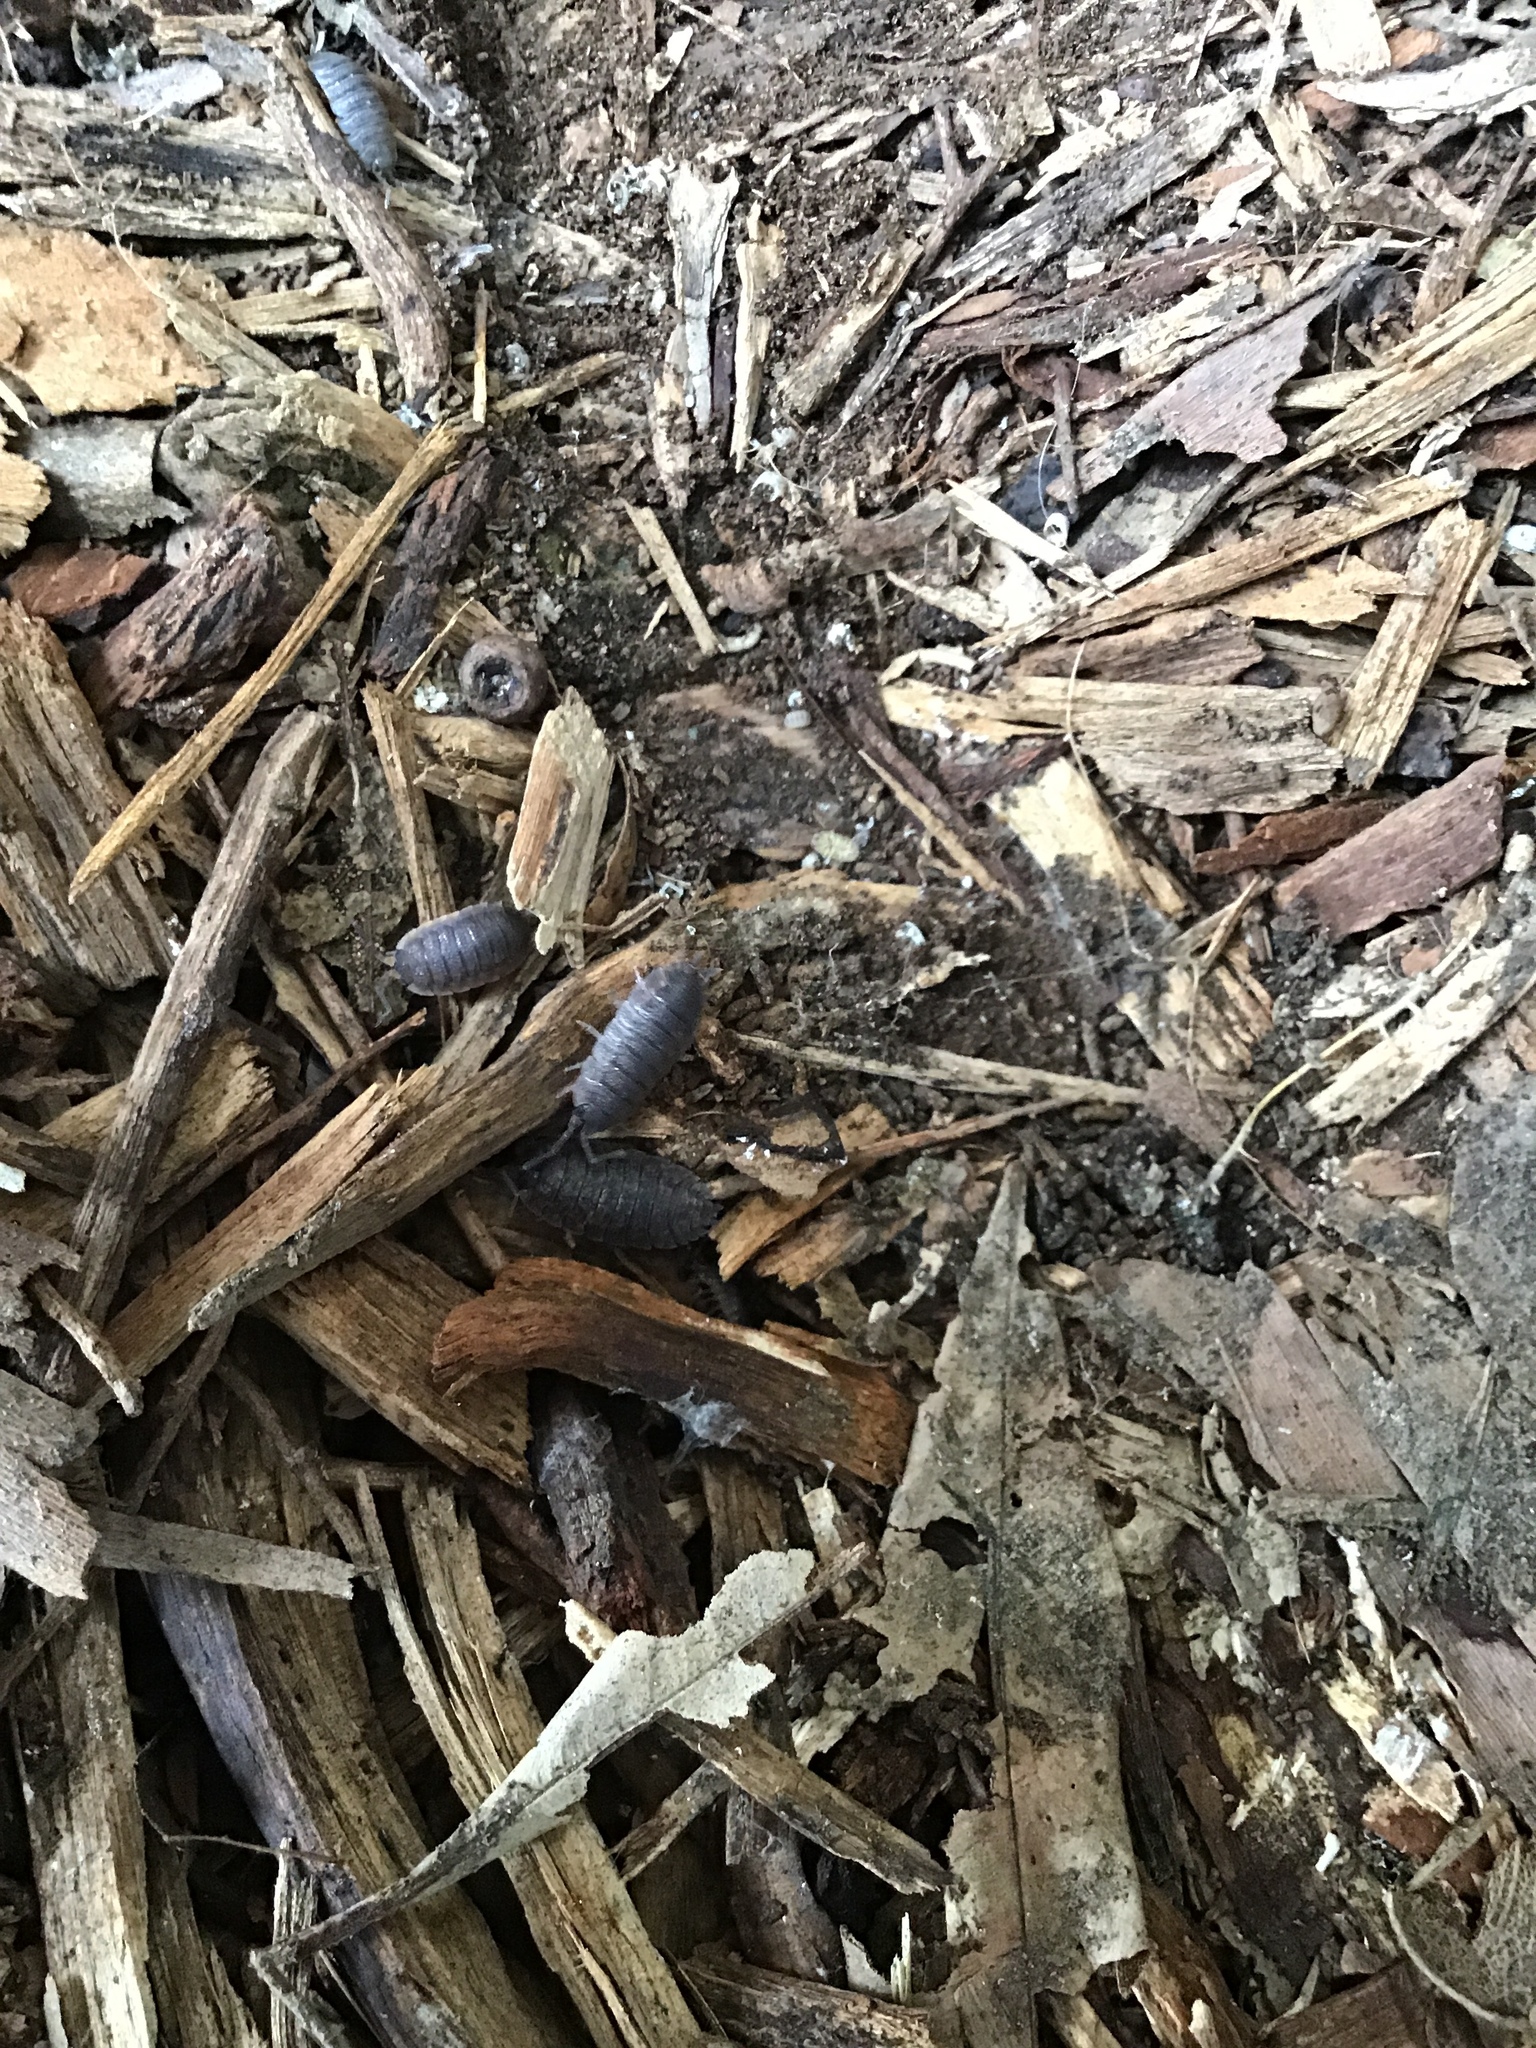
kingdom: Animalia
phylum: Arthropoda
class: Malacostraca
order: Isopoda
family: Porcellionidae
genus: Porcellio
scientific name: Porcellio scaber
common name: Common rough woodlouse
